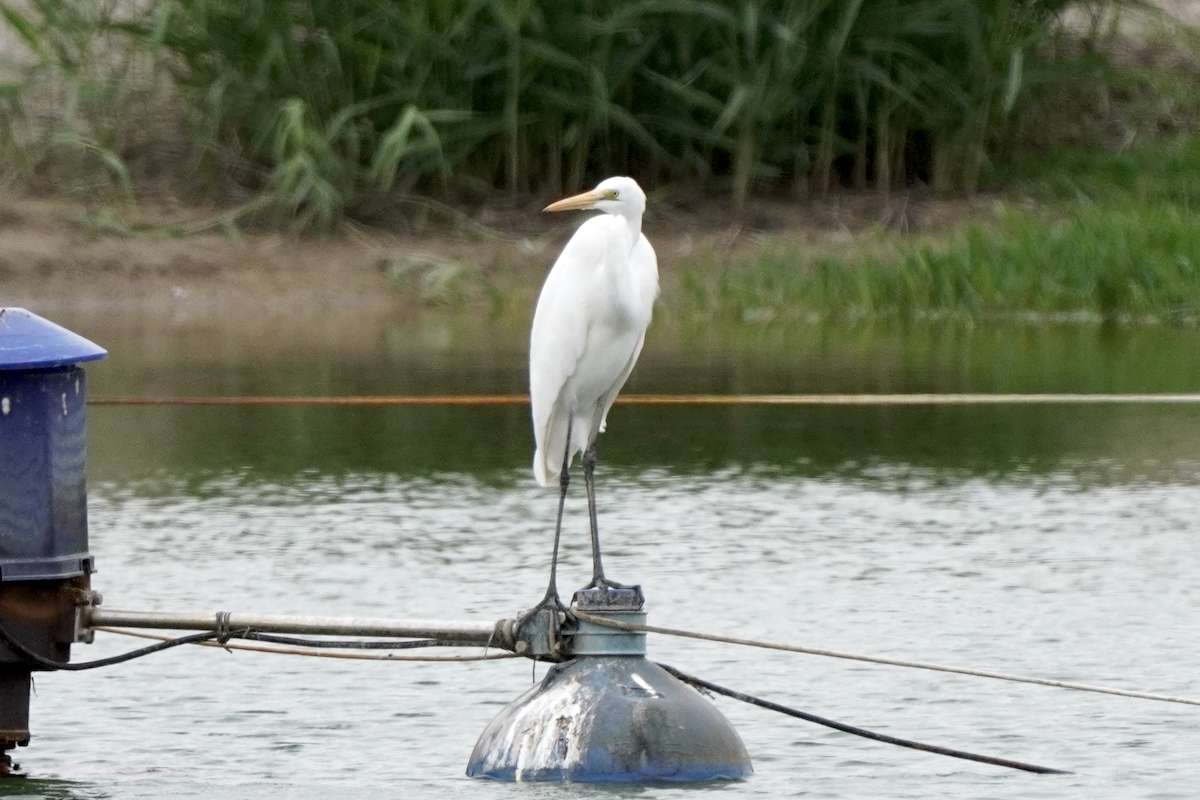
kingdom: Animalia
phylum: Chordata
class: Aves
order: Pelecaniformes
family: Ardeidae
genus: Ardea
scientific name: Ardea alba
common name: Great egret
